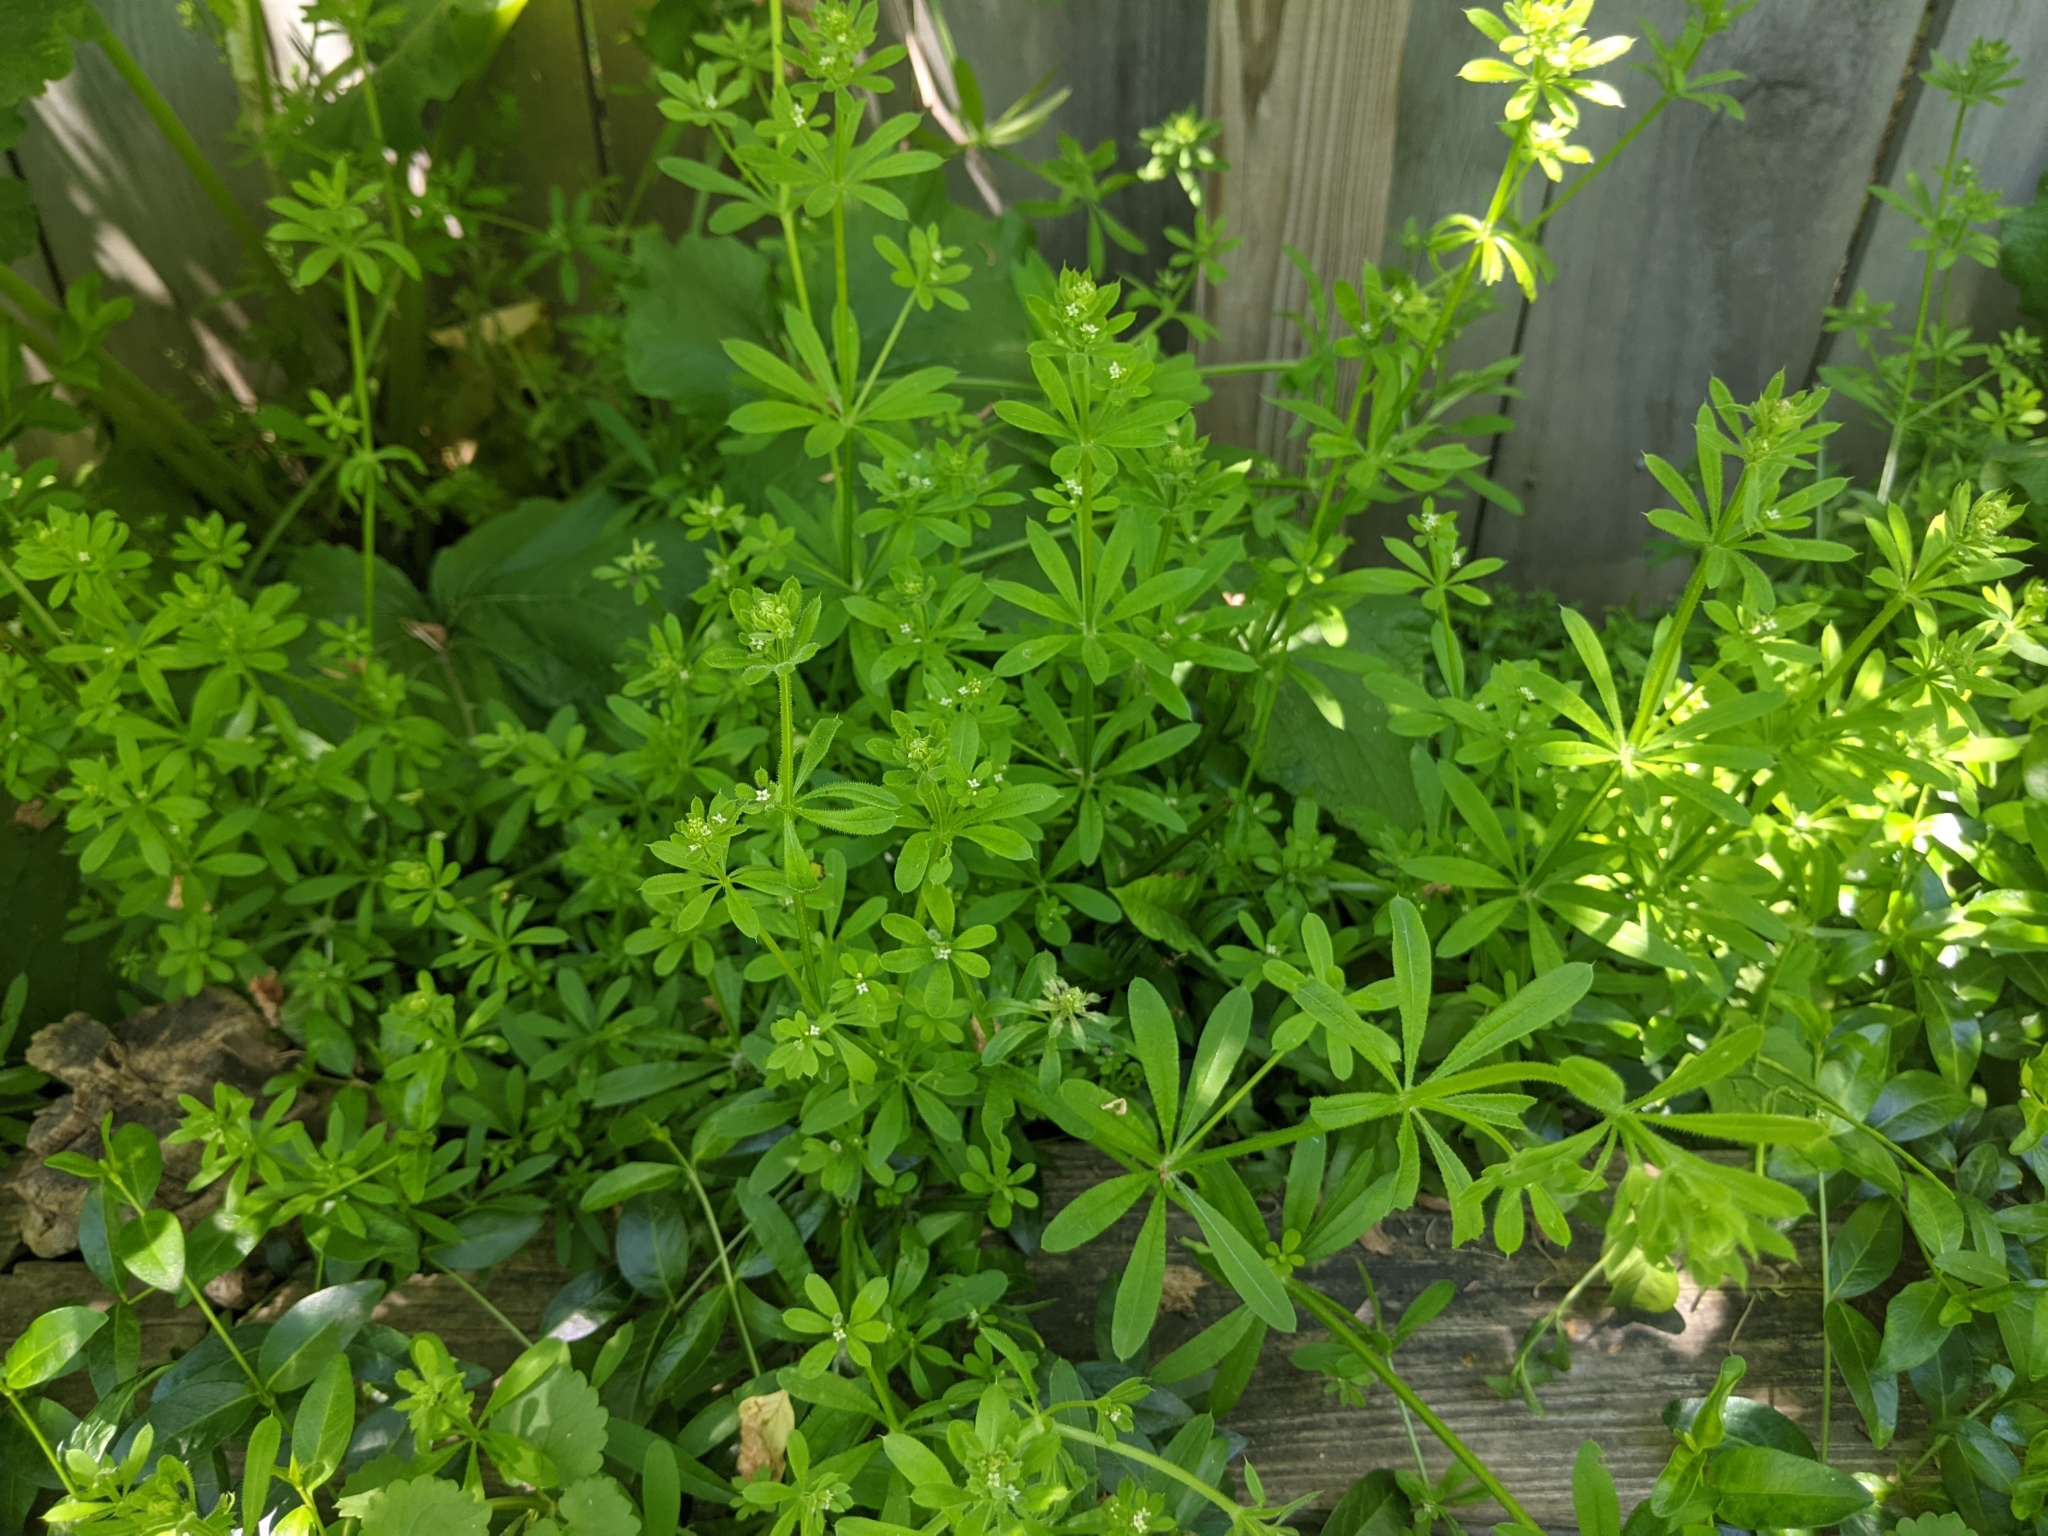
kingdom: Plantae
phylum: Tracheophyta
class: Magnoliopsida
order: Gentianales
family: Rubiaceae
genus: Galium
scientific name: Galium aparine
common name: Cleavers
